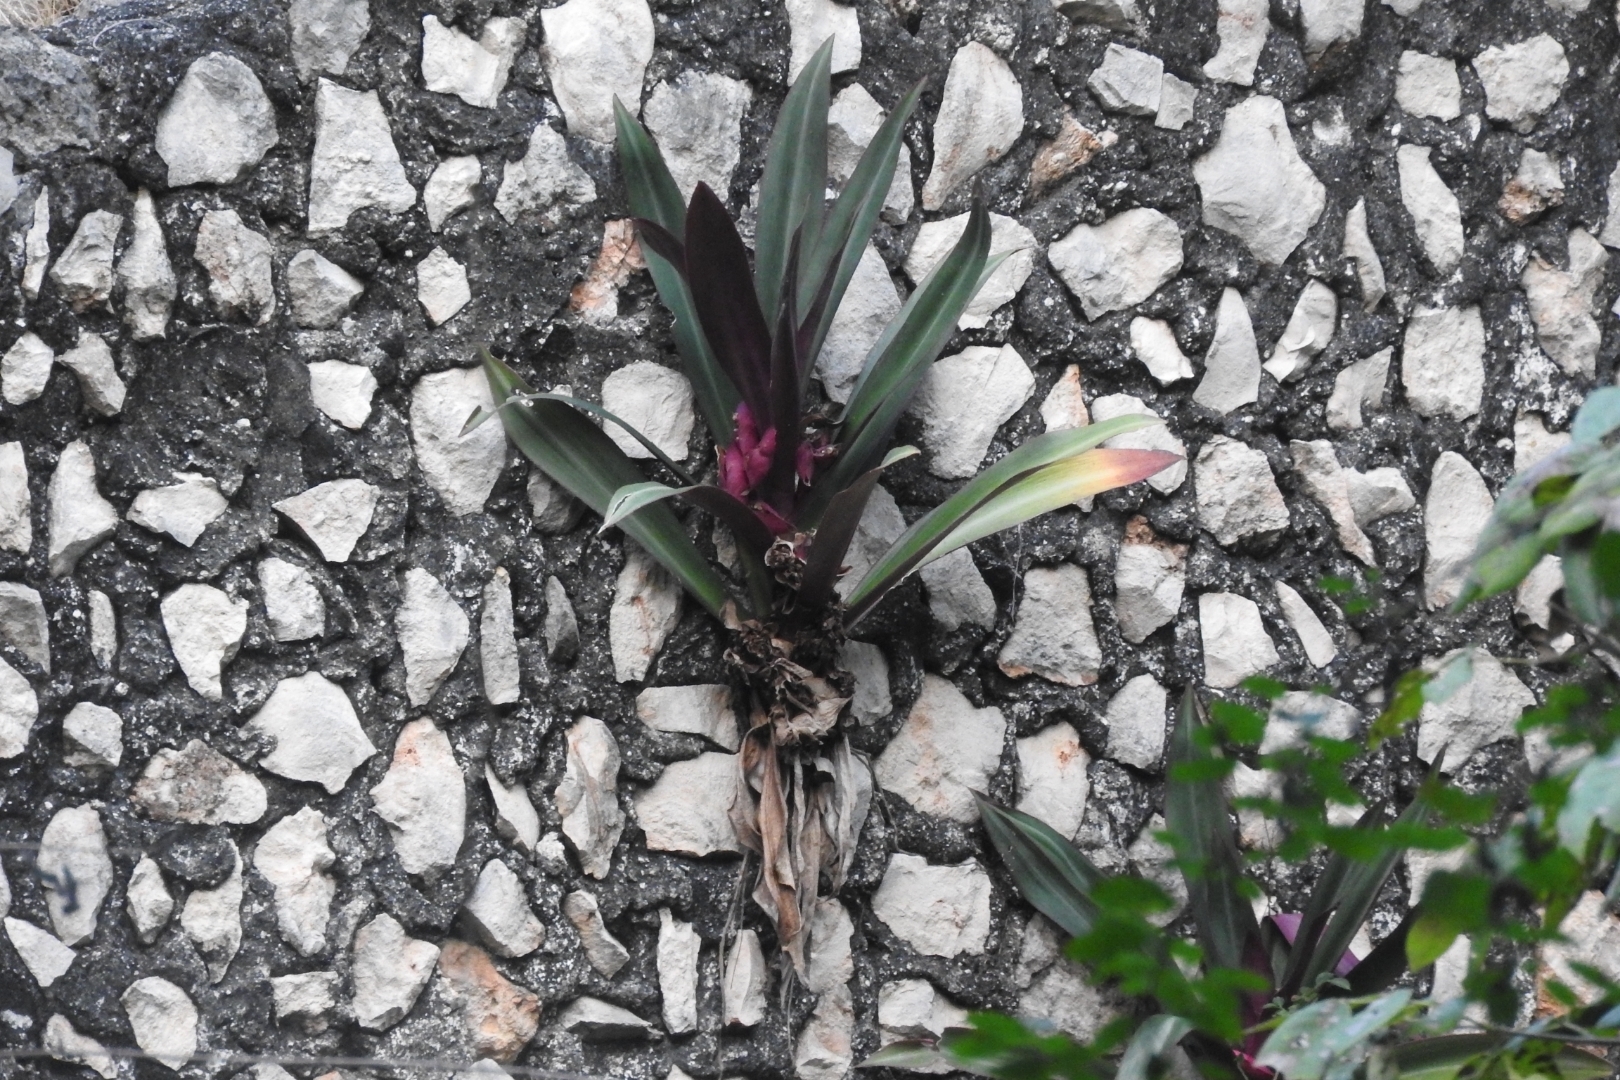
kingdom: Plantae
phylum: Tracheophyta
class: Liliopsida
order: Commelinales
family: Commelinaceae
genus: Tradescantia
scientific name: Tradescantia spathacea
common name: Boatlily
